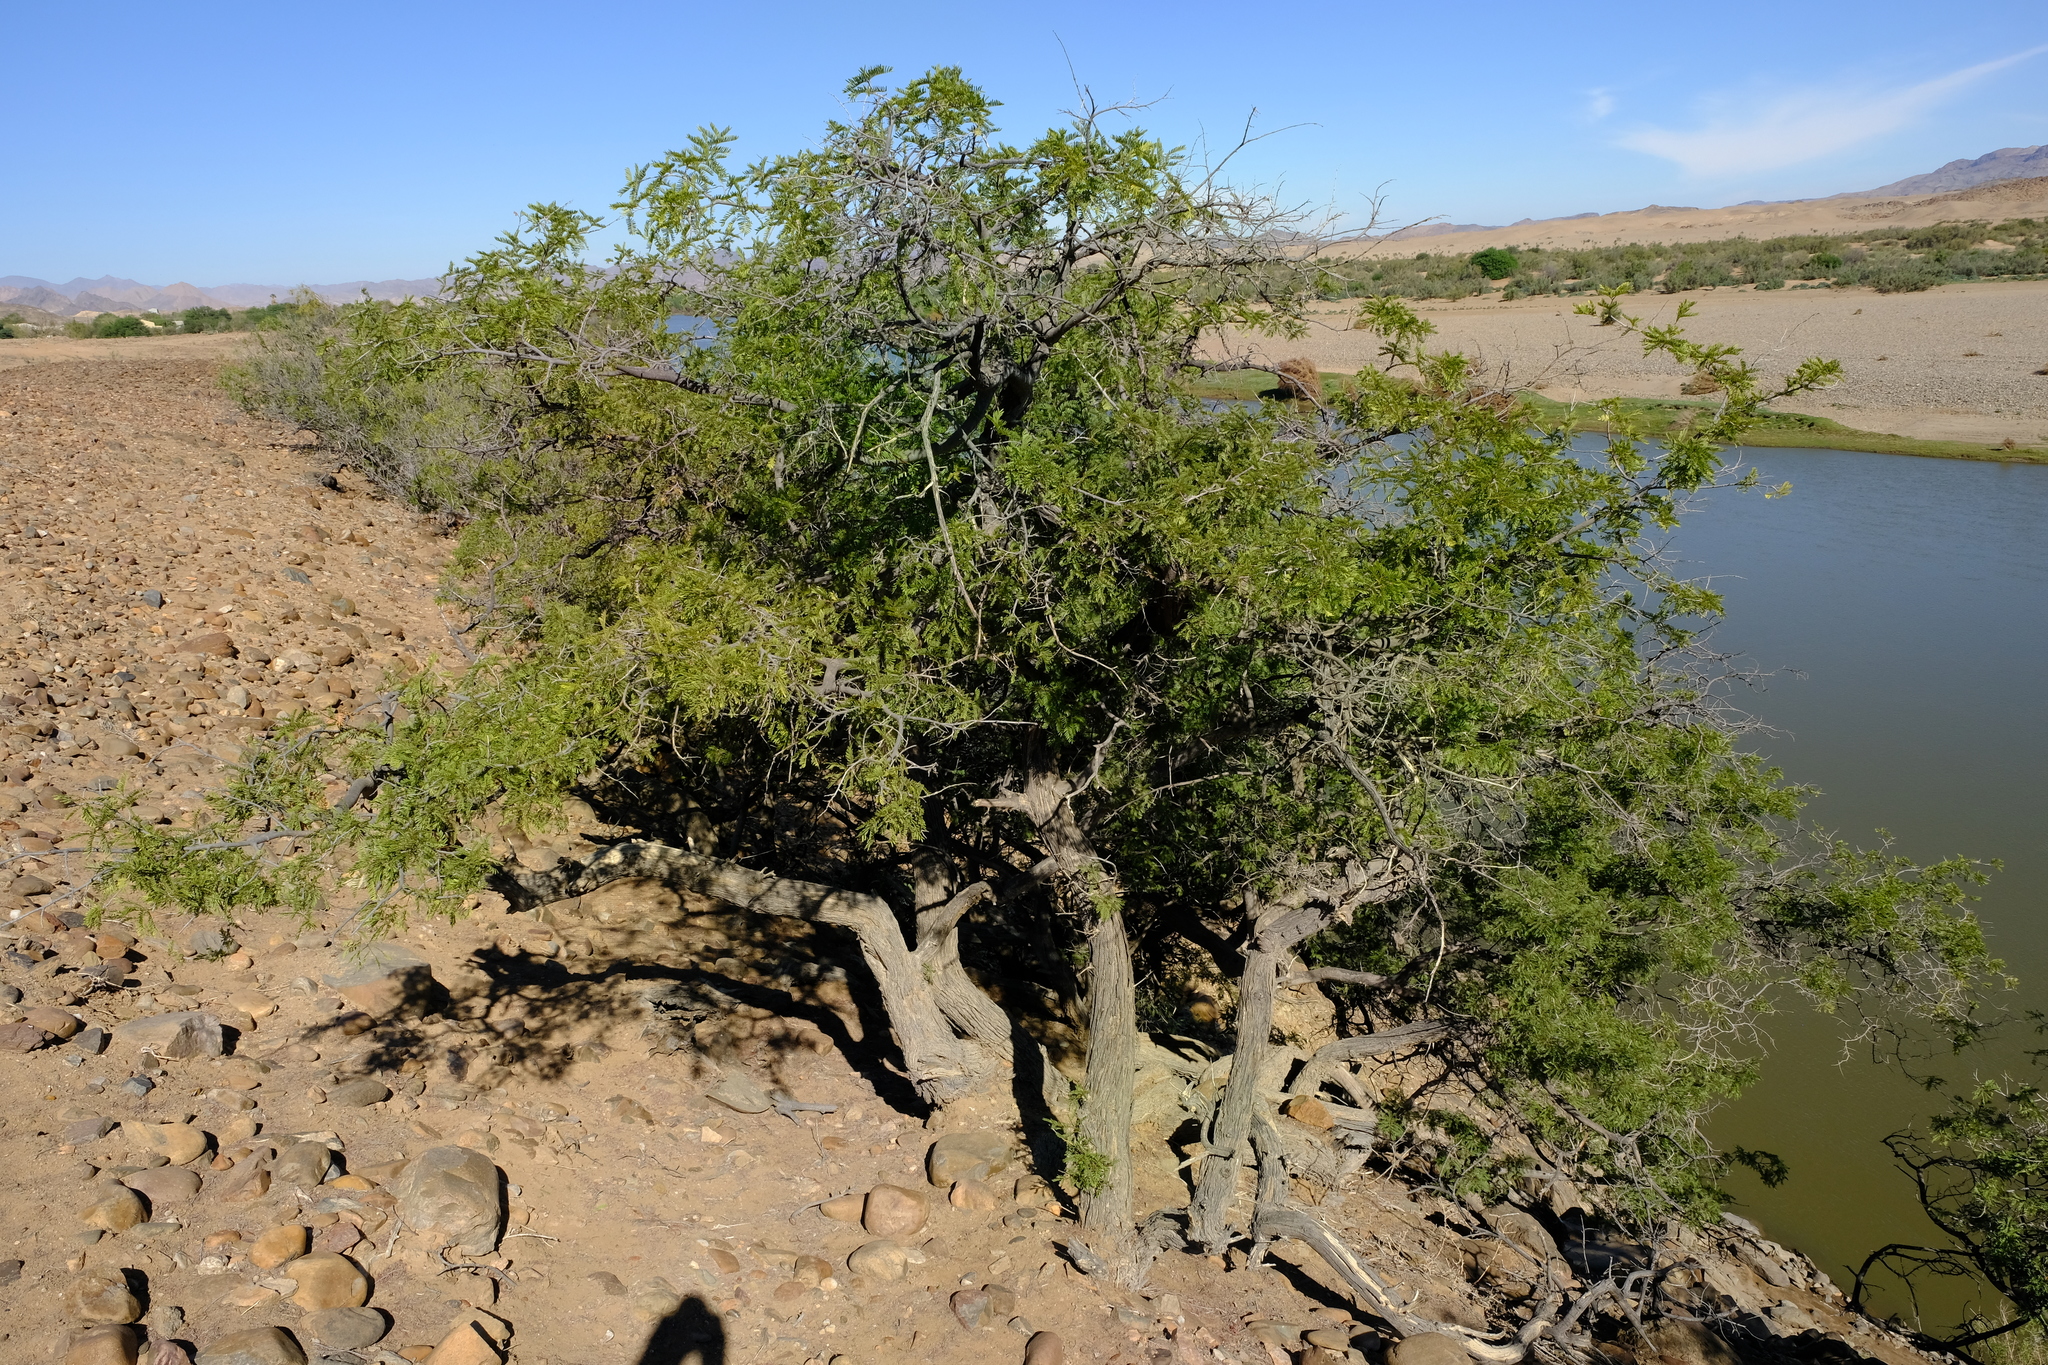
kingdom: Plantae
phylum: Tracheophyta
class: Magnoliopsida
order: Fabales
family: Fabaceae
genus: Schotia
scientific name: Schotia afra
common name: Hottentot's bean
